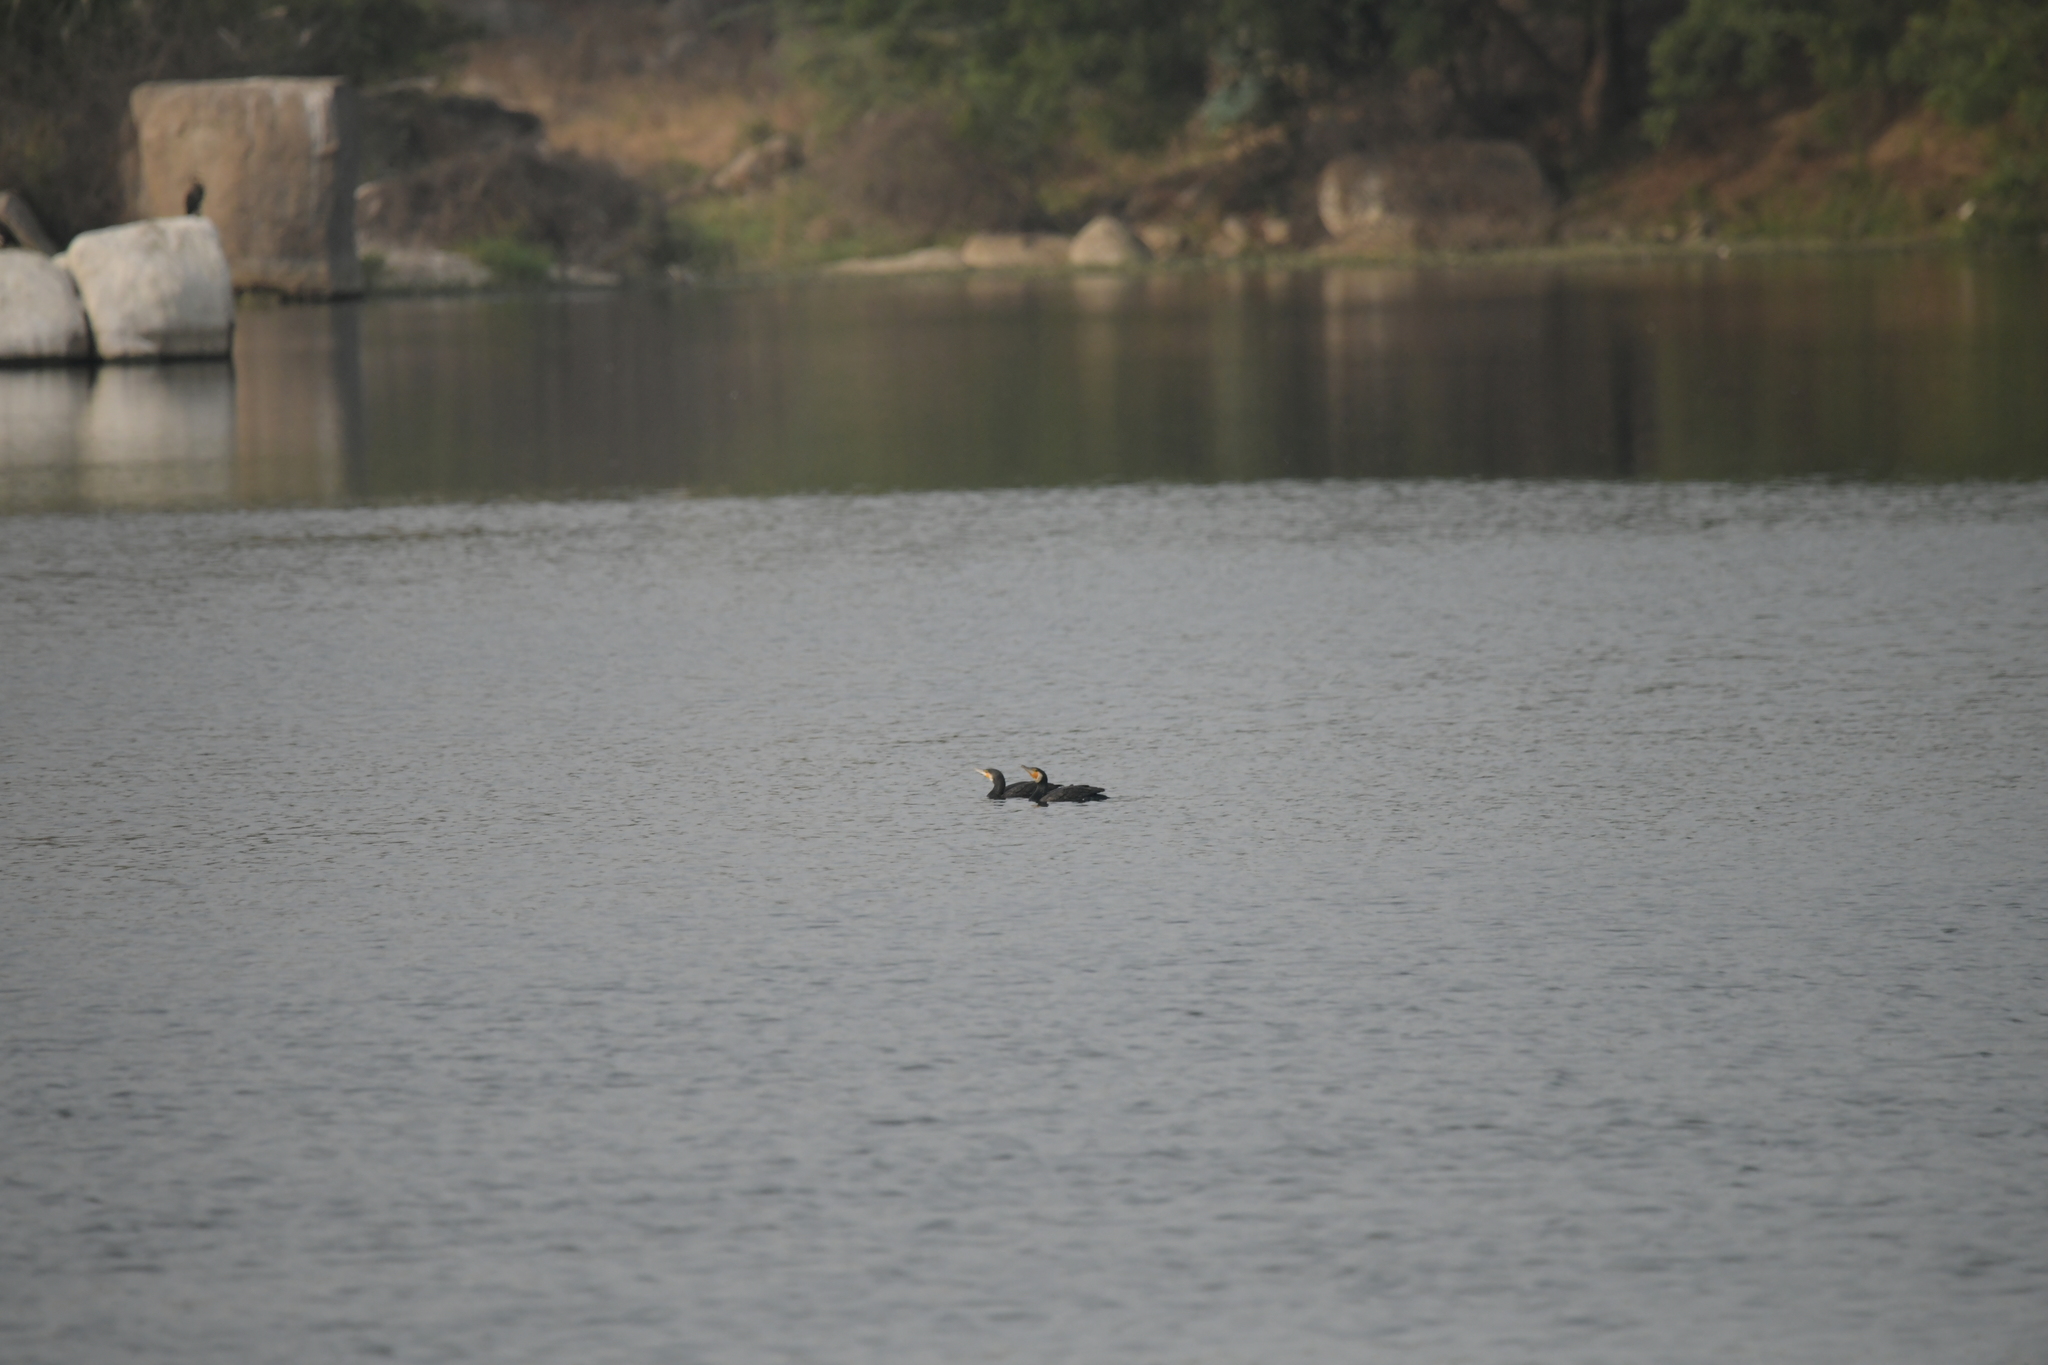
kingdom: Animalia
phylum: Chordata
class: Aves
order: Suliformes
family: Phalacrocoracidae
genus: Phalacrocorax
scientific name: Phalacrocorax carbo
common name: Great cormorant
